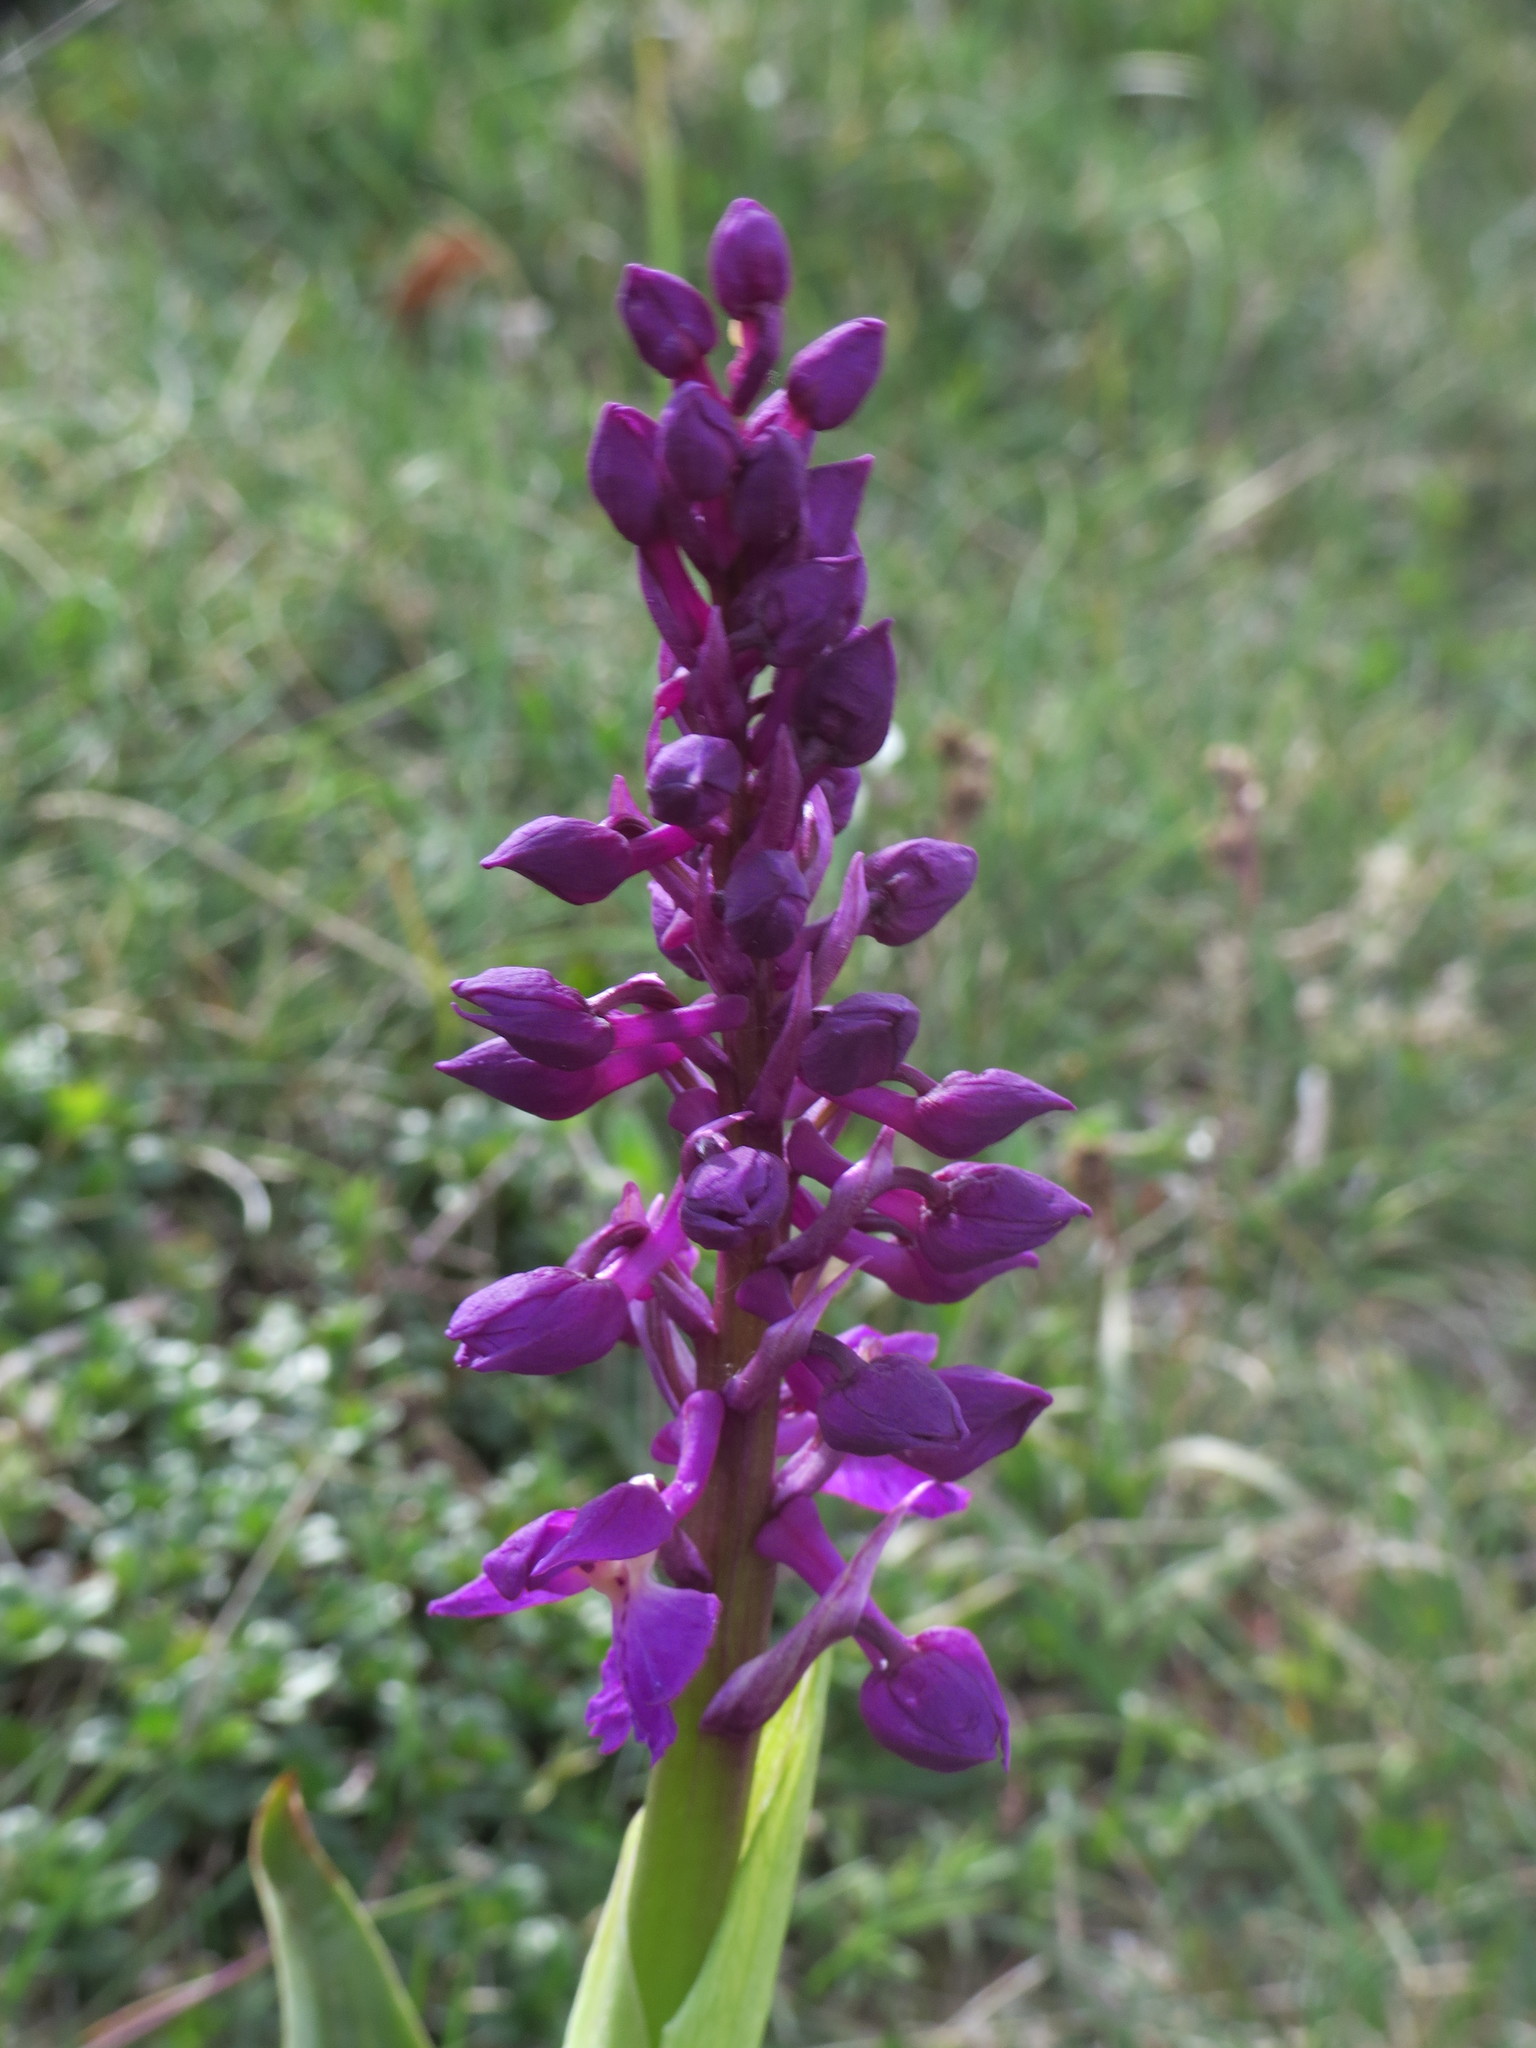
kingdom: Plantae
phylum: Tracheophyta
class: Liliopsida
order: Asparagales
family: Orchidaceae
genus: Orchis
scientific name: Orchis mascula
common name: Early-purple orchid
